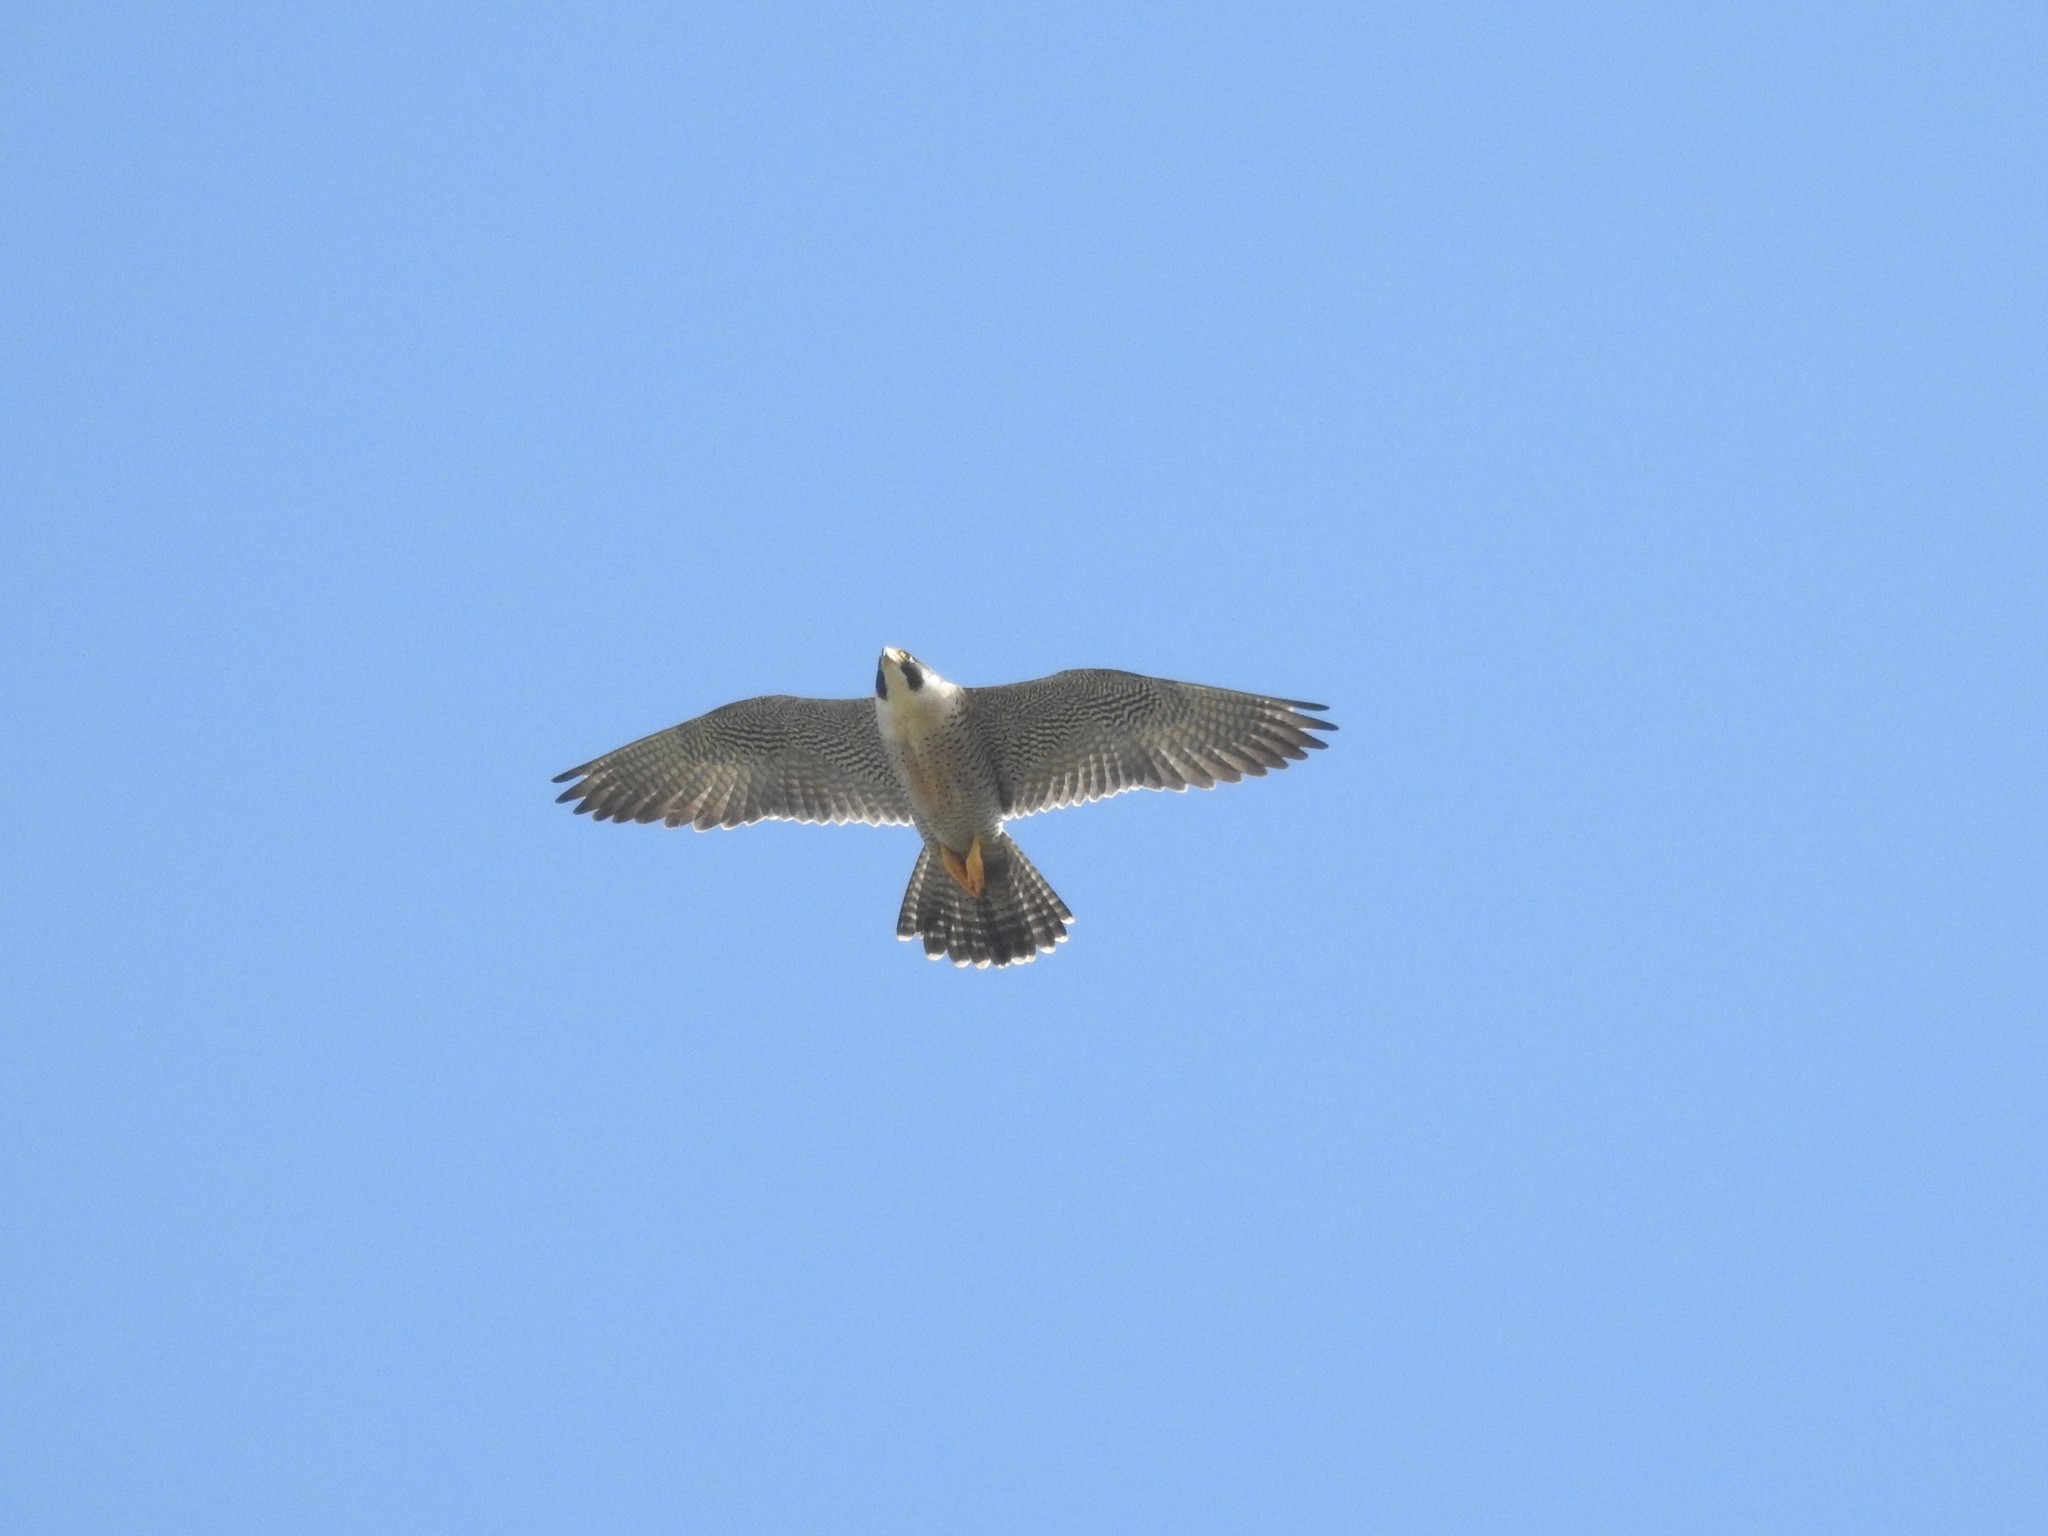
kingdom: Animalia
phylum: Chordata
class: Aves
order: Falconiformes
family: Falconidae
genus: Falco
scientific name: Falco peregrinus
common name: Peregrine falcon
